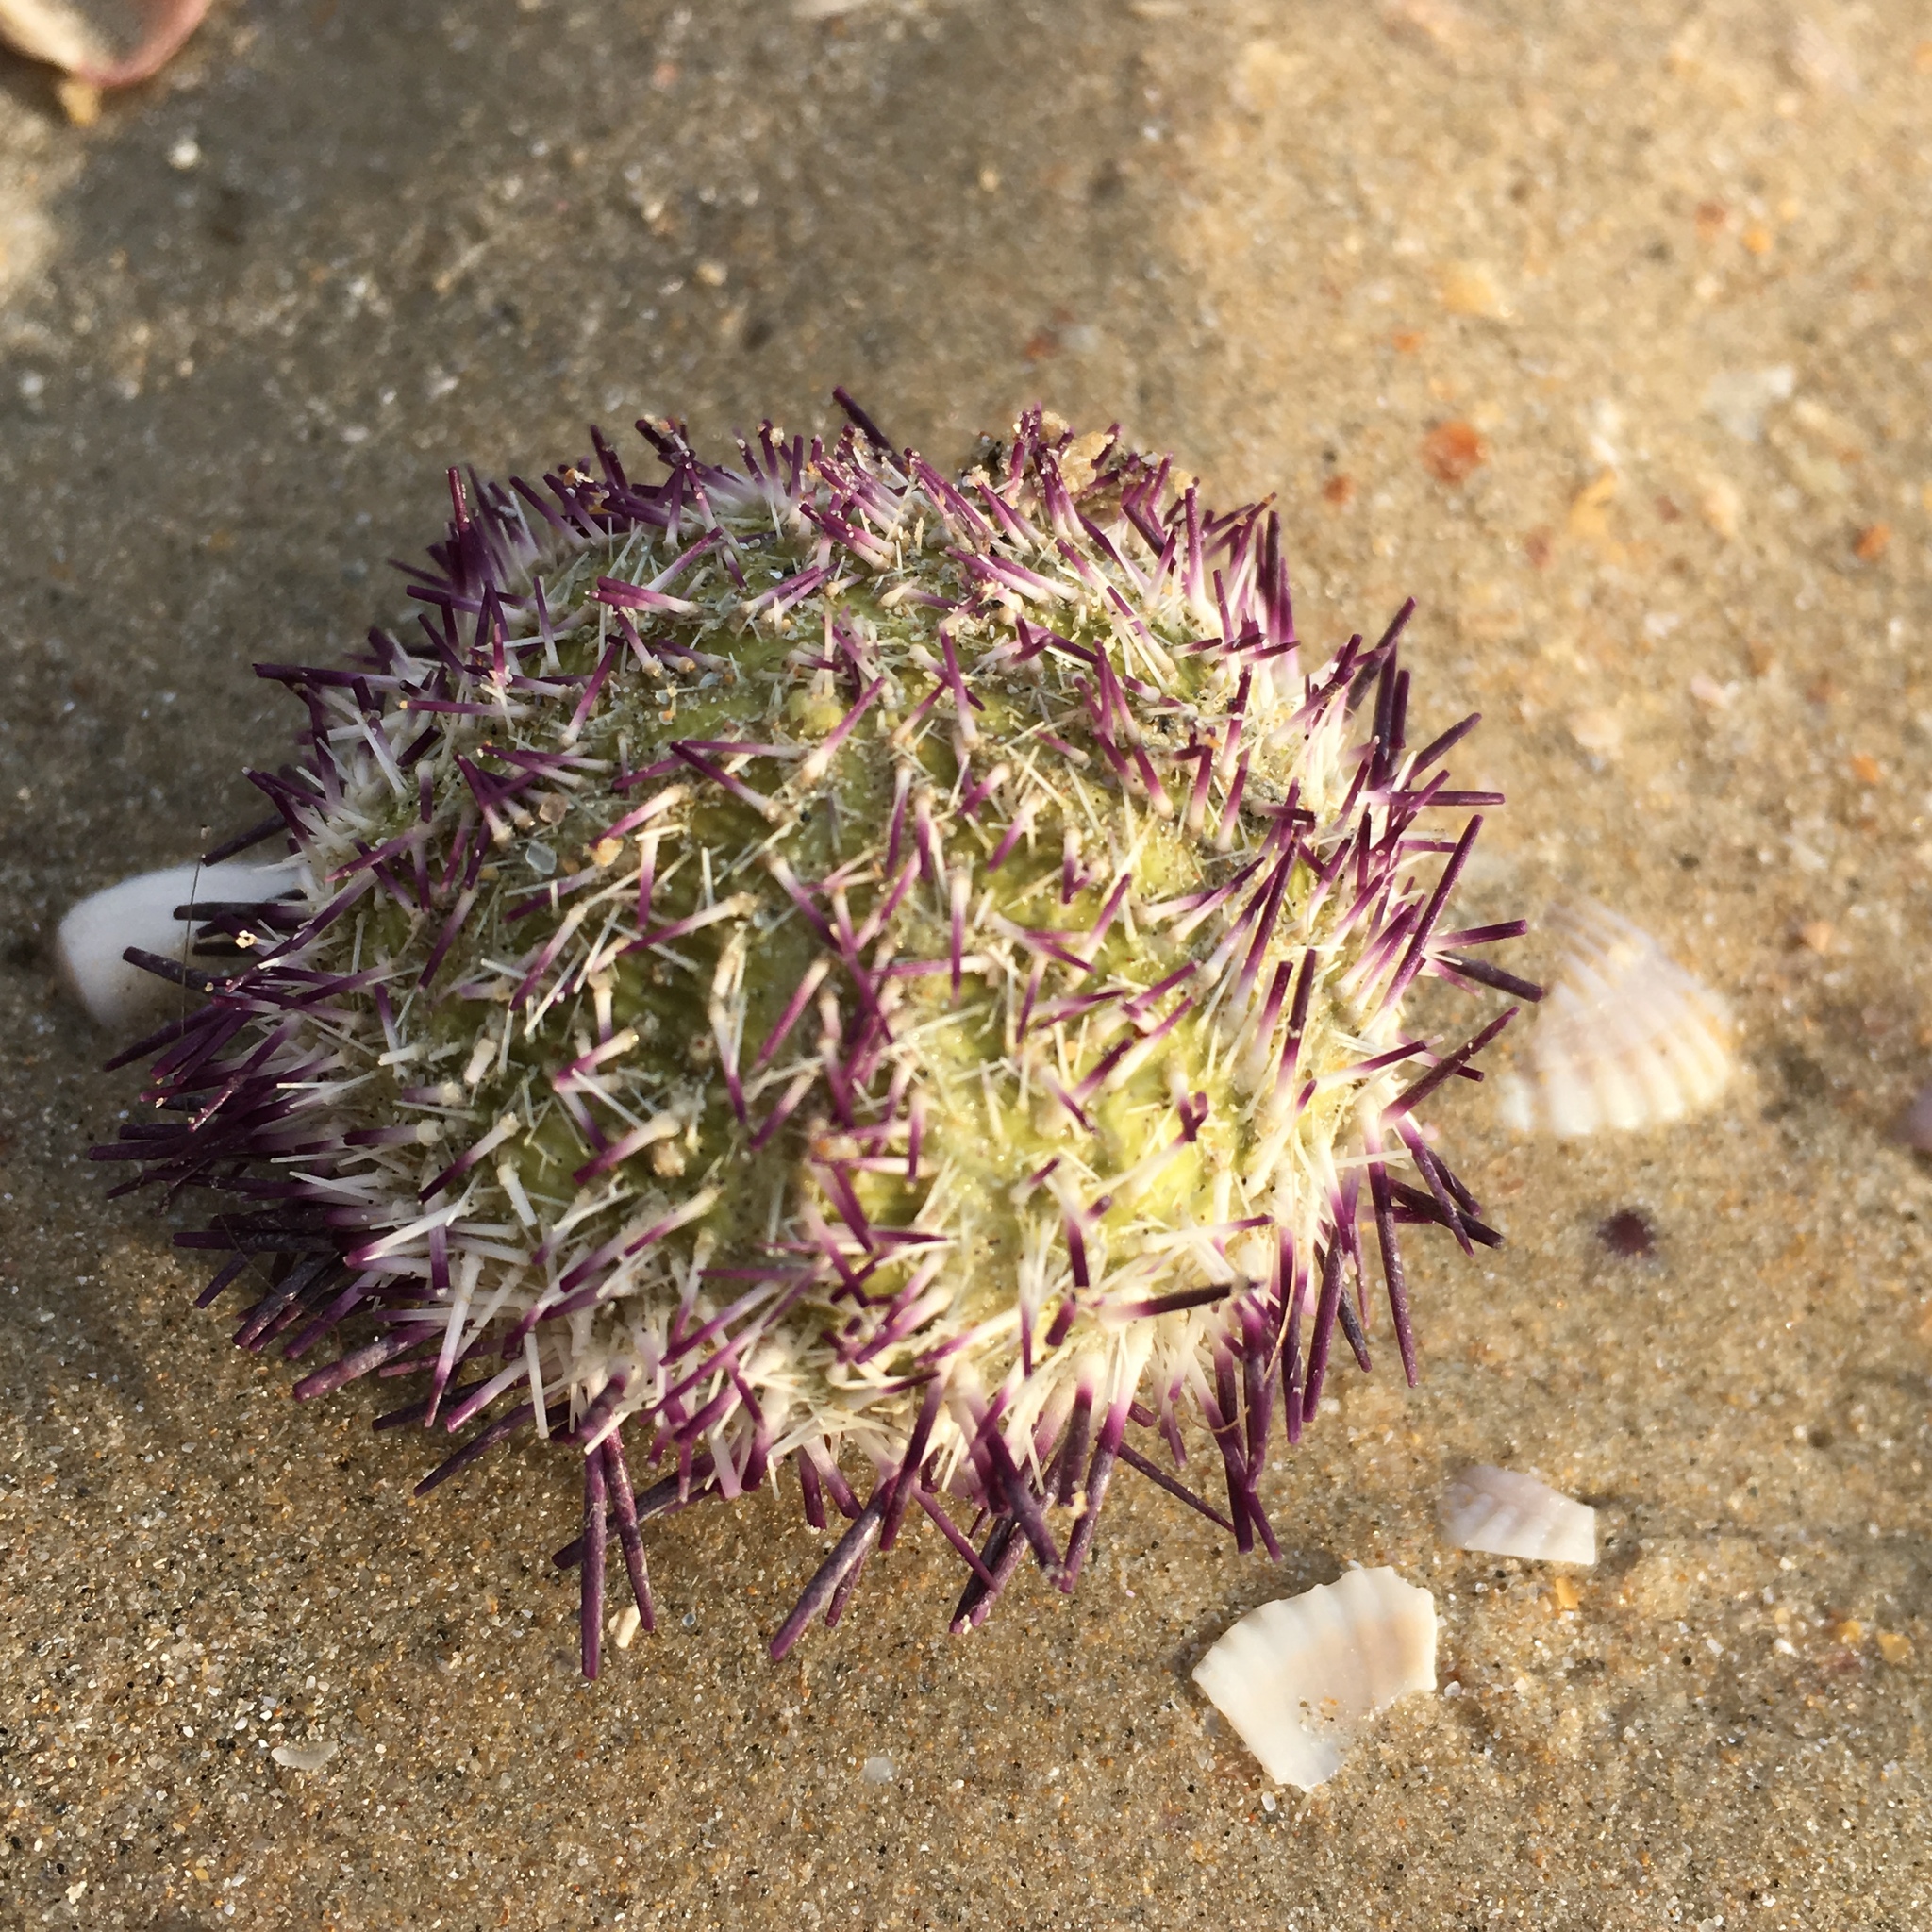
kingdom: Animalia
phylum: Echinodermata
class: Echinoidea
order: Camarodonta
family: Temnopleuridae
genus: Salmacis
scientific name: Salmacis virgulata
